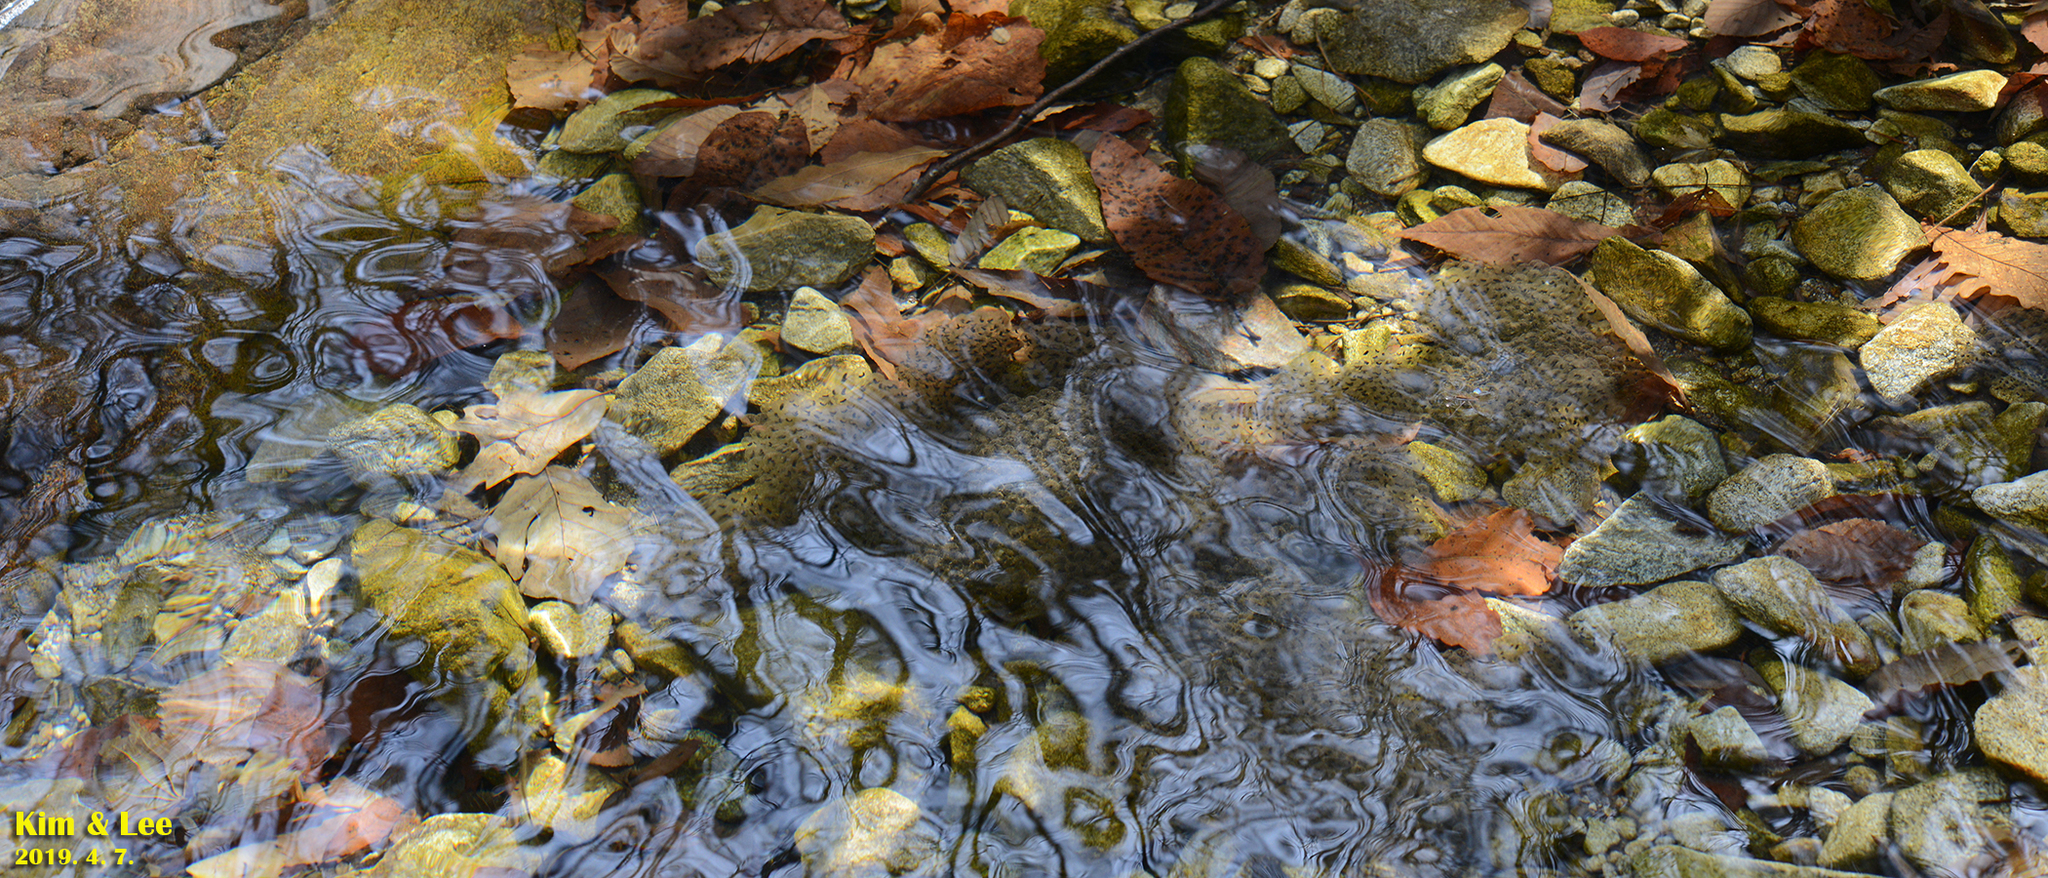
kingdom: Animalia
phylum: Chordata
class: Amphibia
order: Anura
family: Ranidae
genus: Rana
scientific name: Rana huanrenensis
